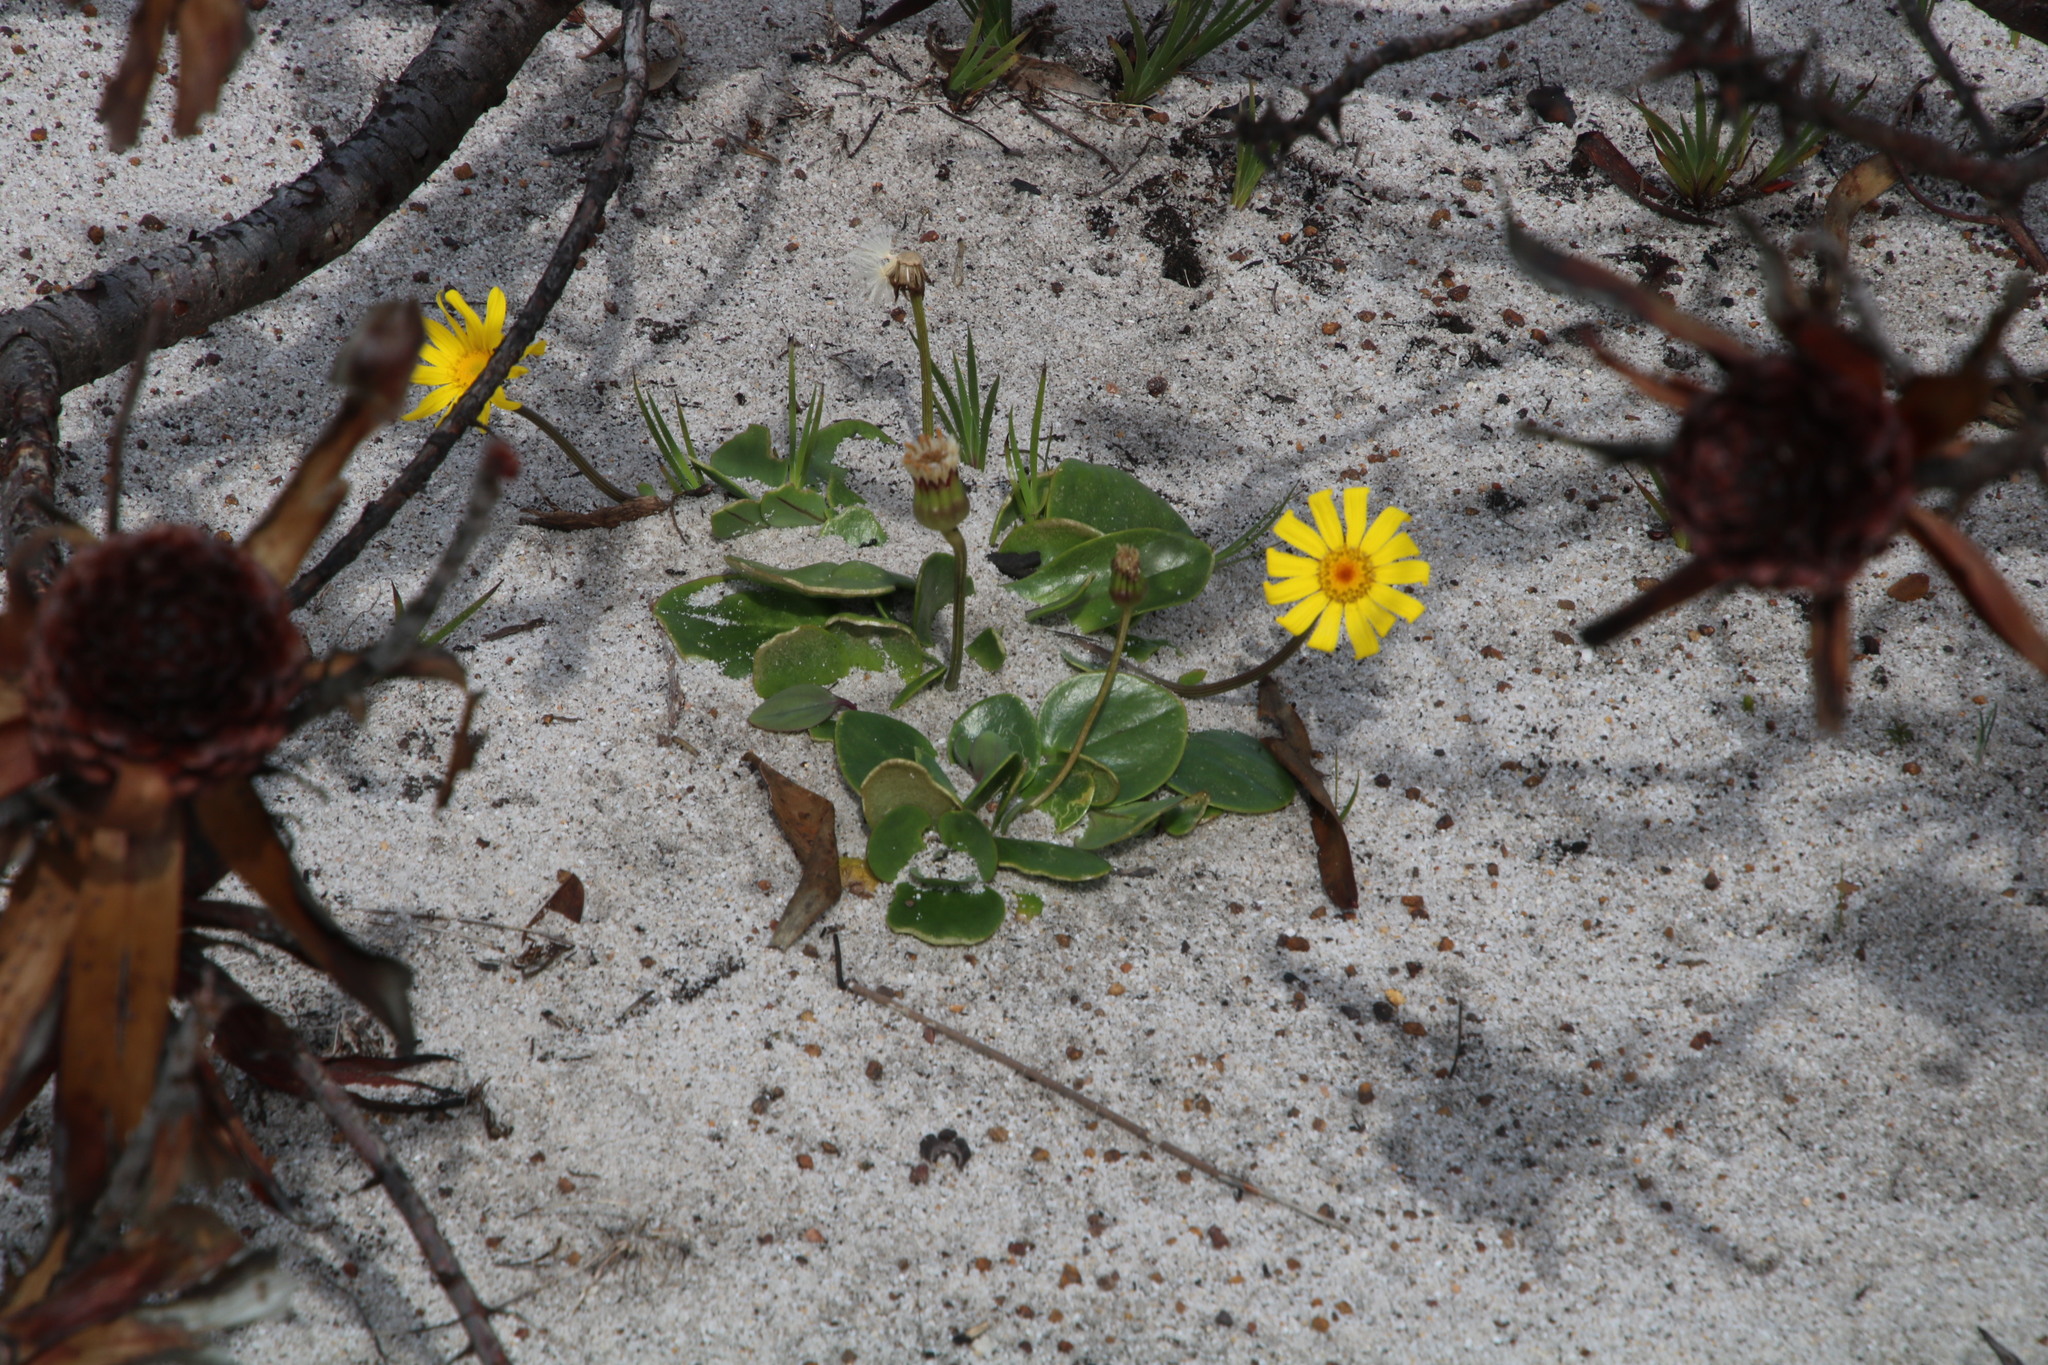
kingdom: Plantae
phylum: Tracheophyta
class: Magnoliopsida
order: Asterales
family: Asteraceae
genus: Othonna
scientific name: Othonna bulbosa
